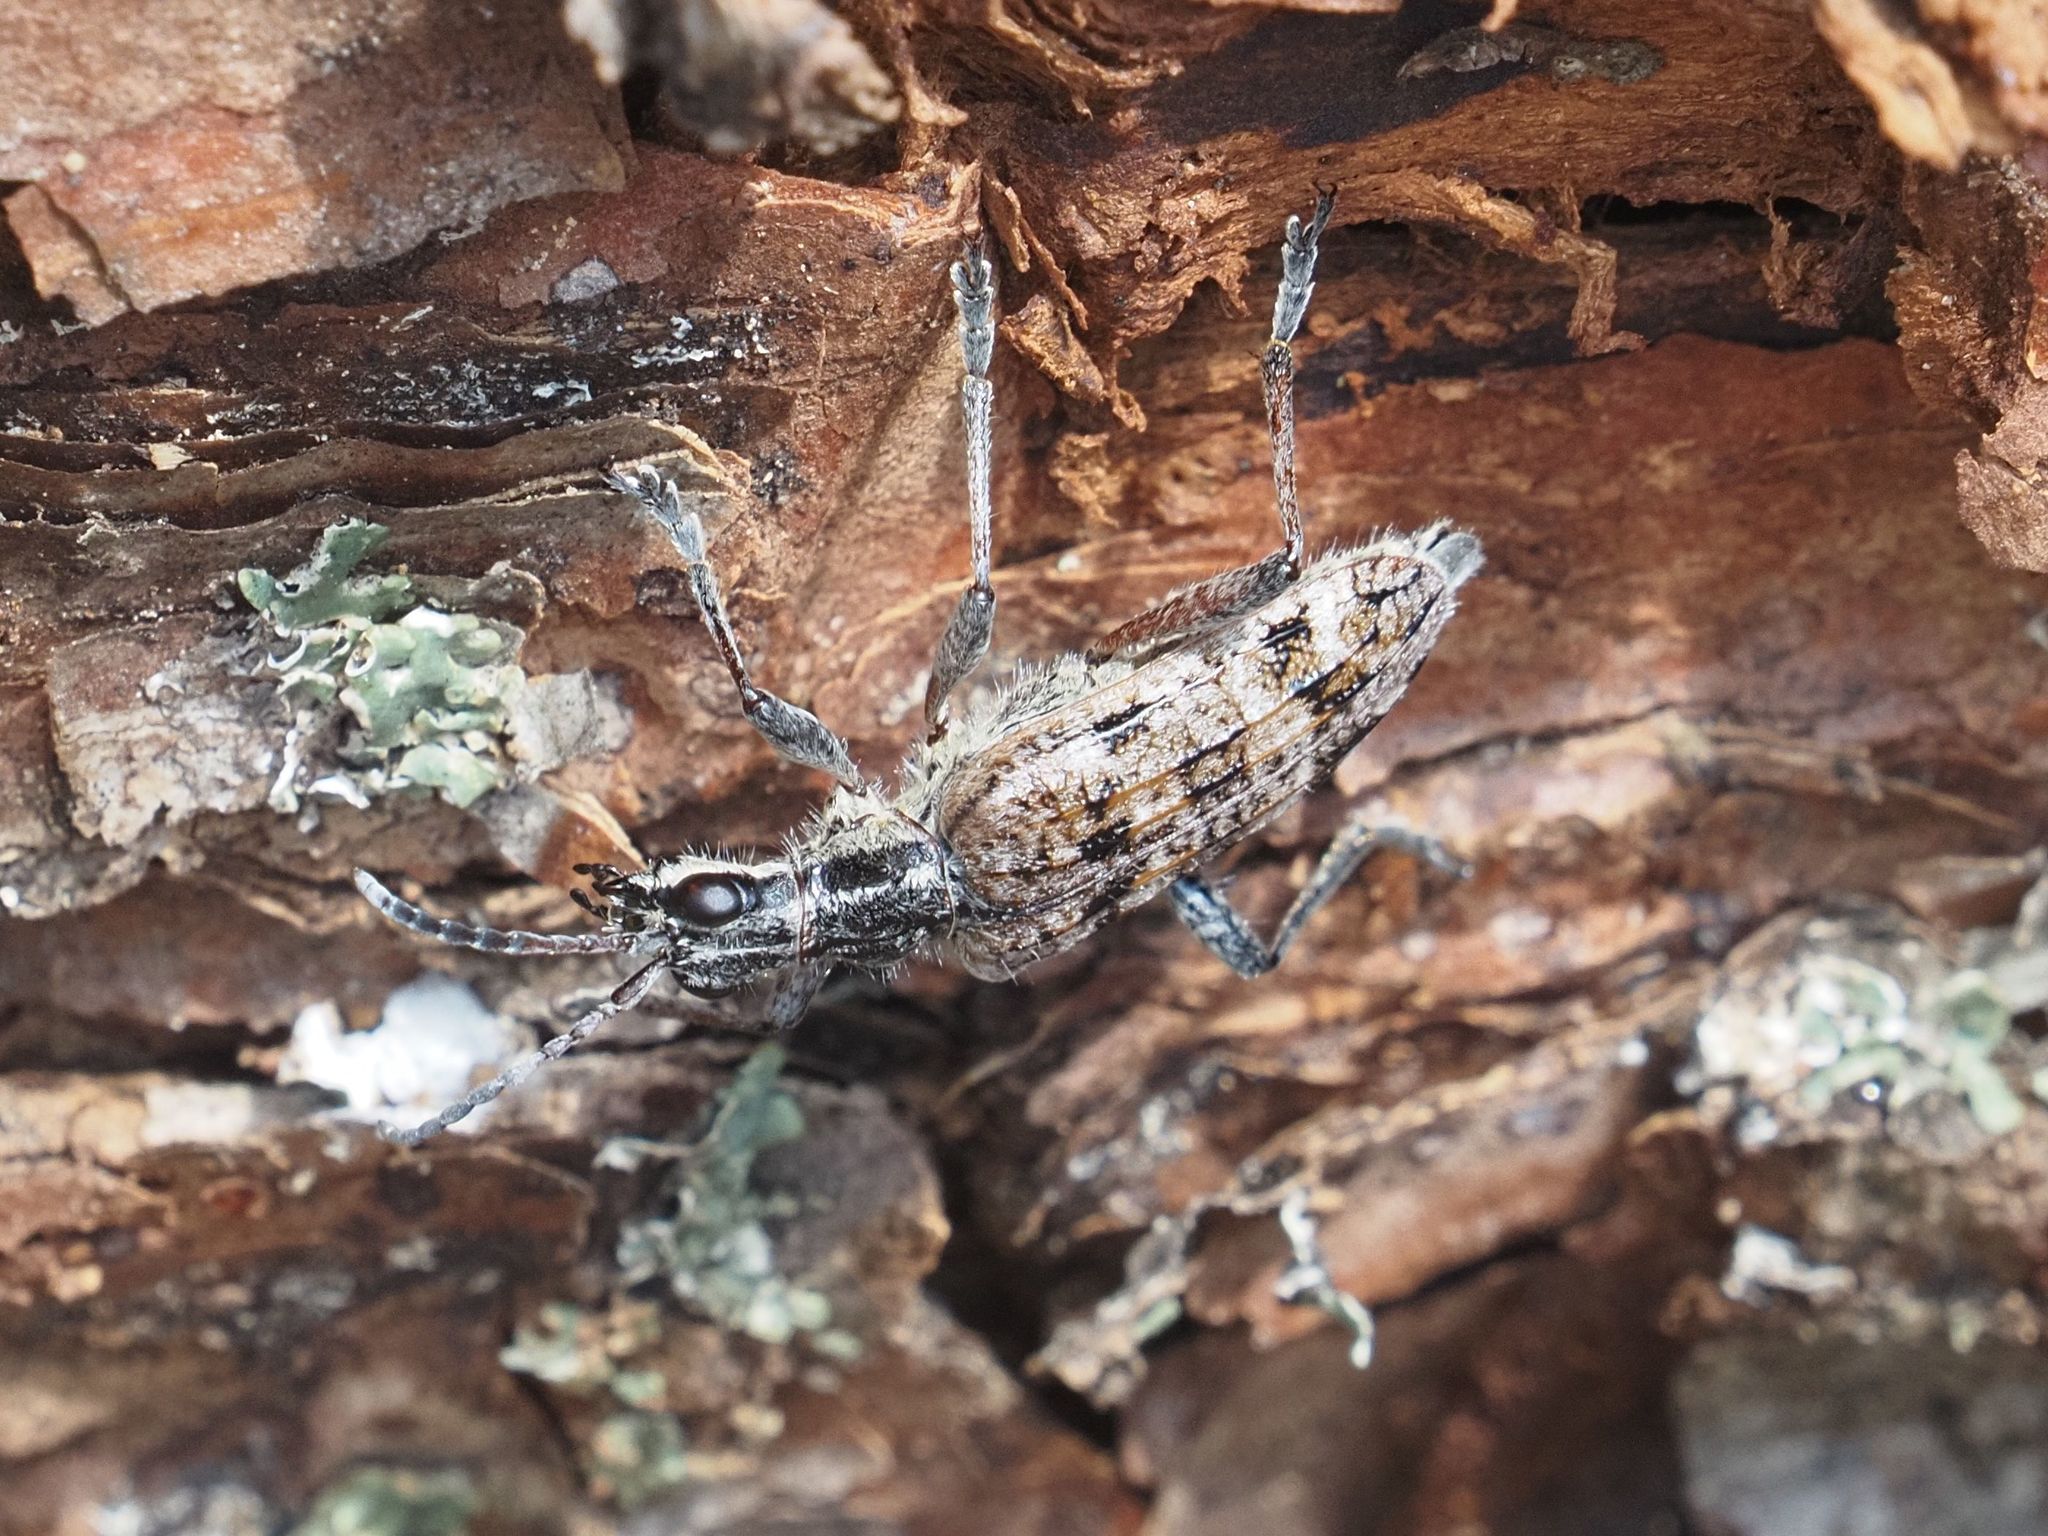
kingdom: Animalia
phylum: Arthropoda
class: Insecta
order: Coleoptera
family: Cerambycidae
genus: Rhagium
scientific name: Rhagium inquisitor
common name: Ribbed pine borer
